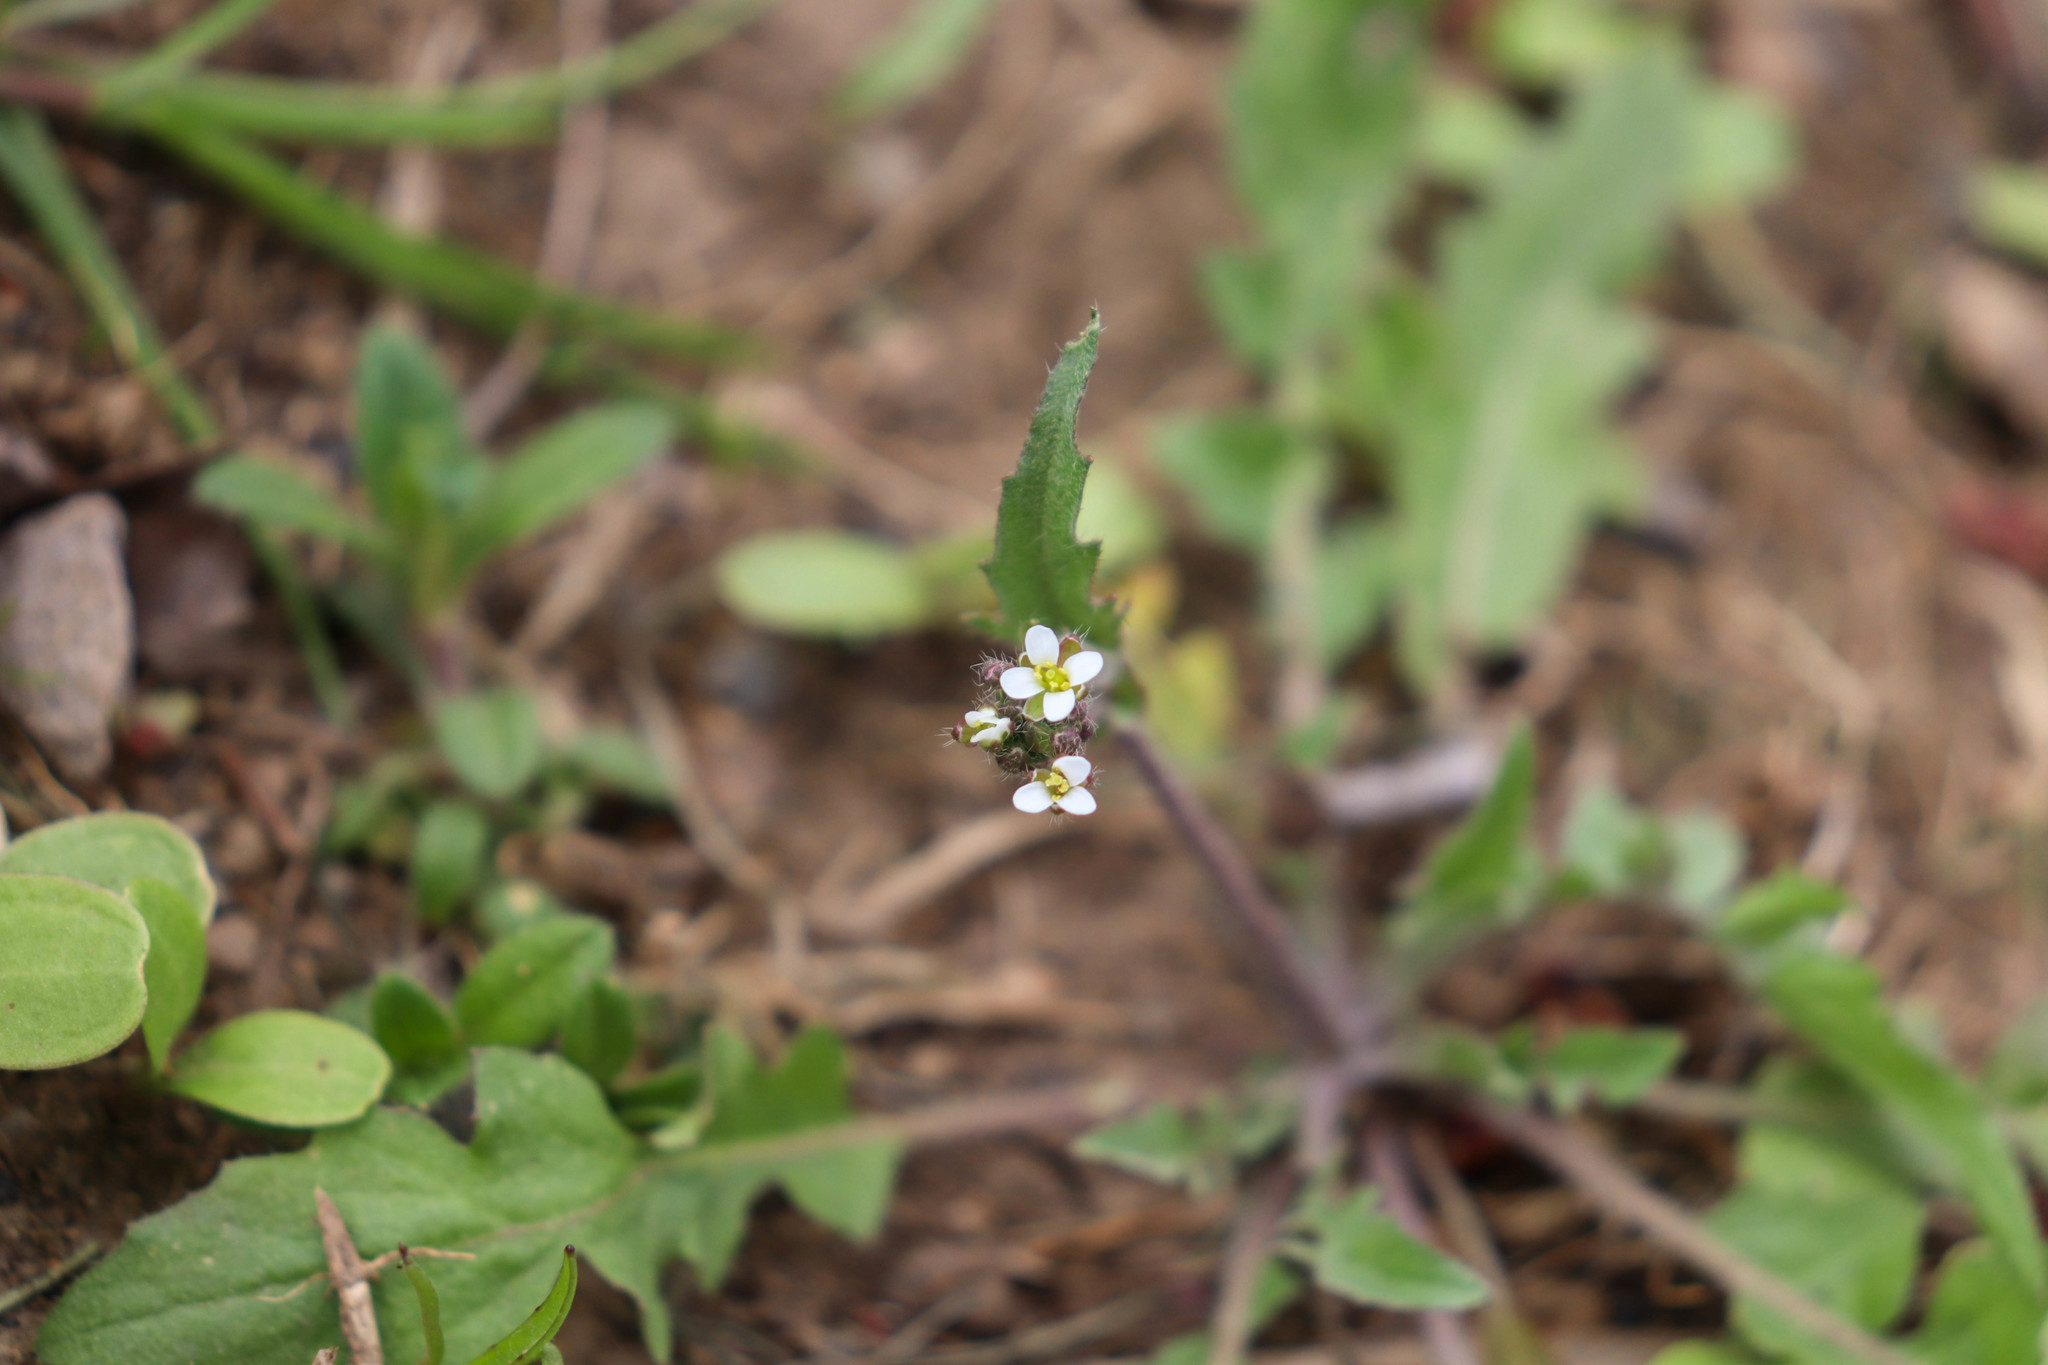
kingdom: Plantae
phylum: Tracheophyta
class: Magnoliopsida
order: Brassicales
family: Brassicaceae
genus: Capsella
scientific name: Capsella bursa-pastoris
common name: Shepherd's purse
